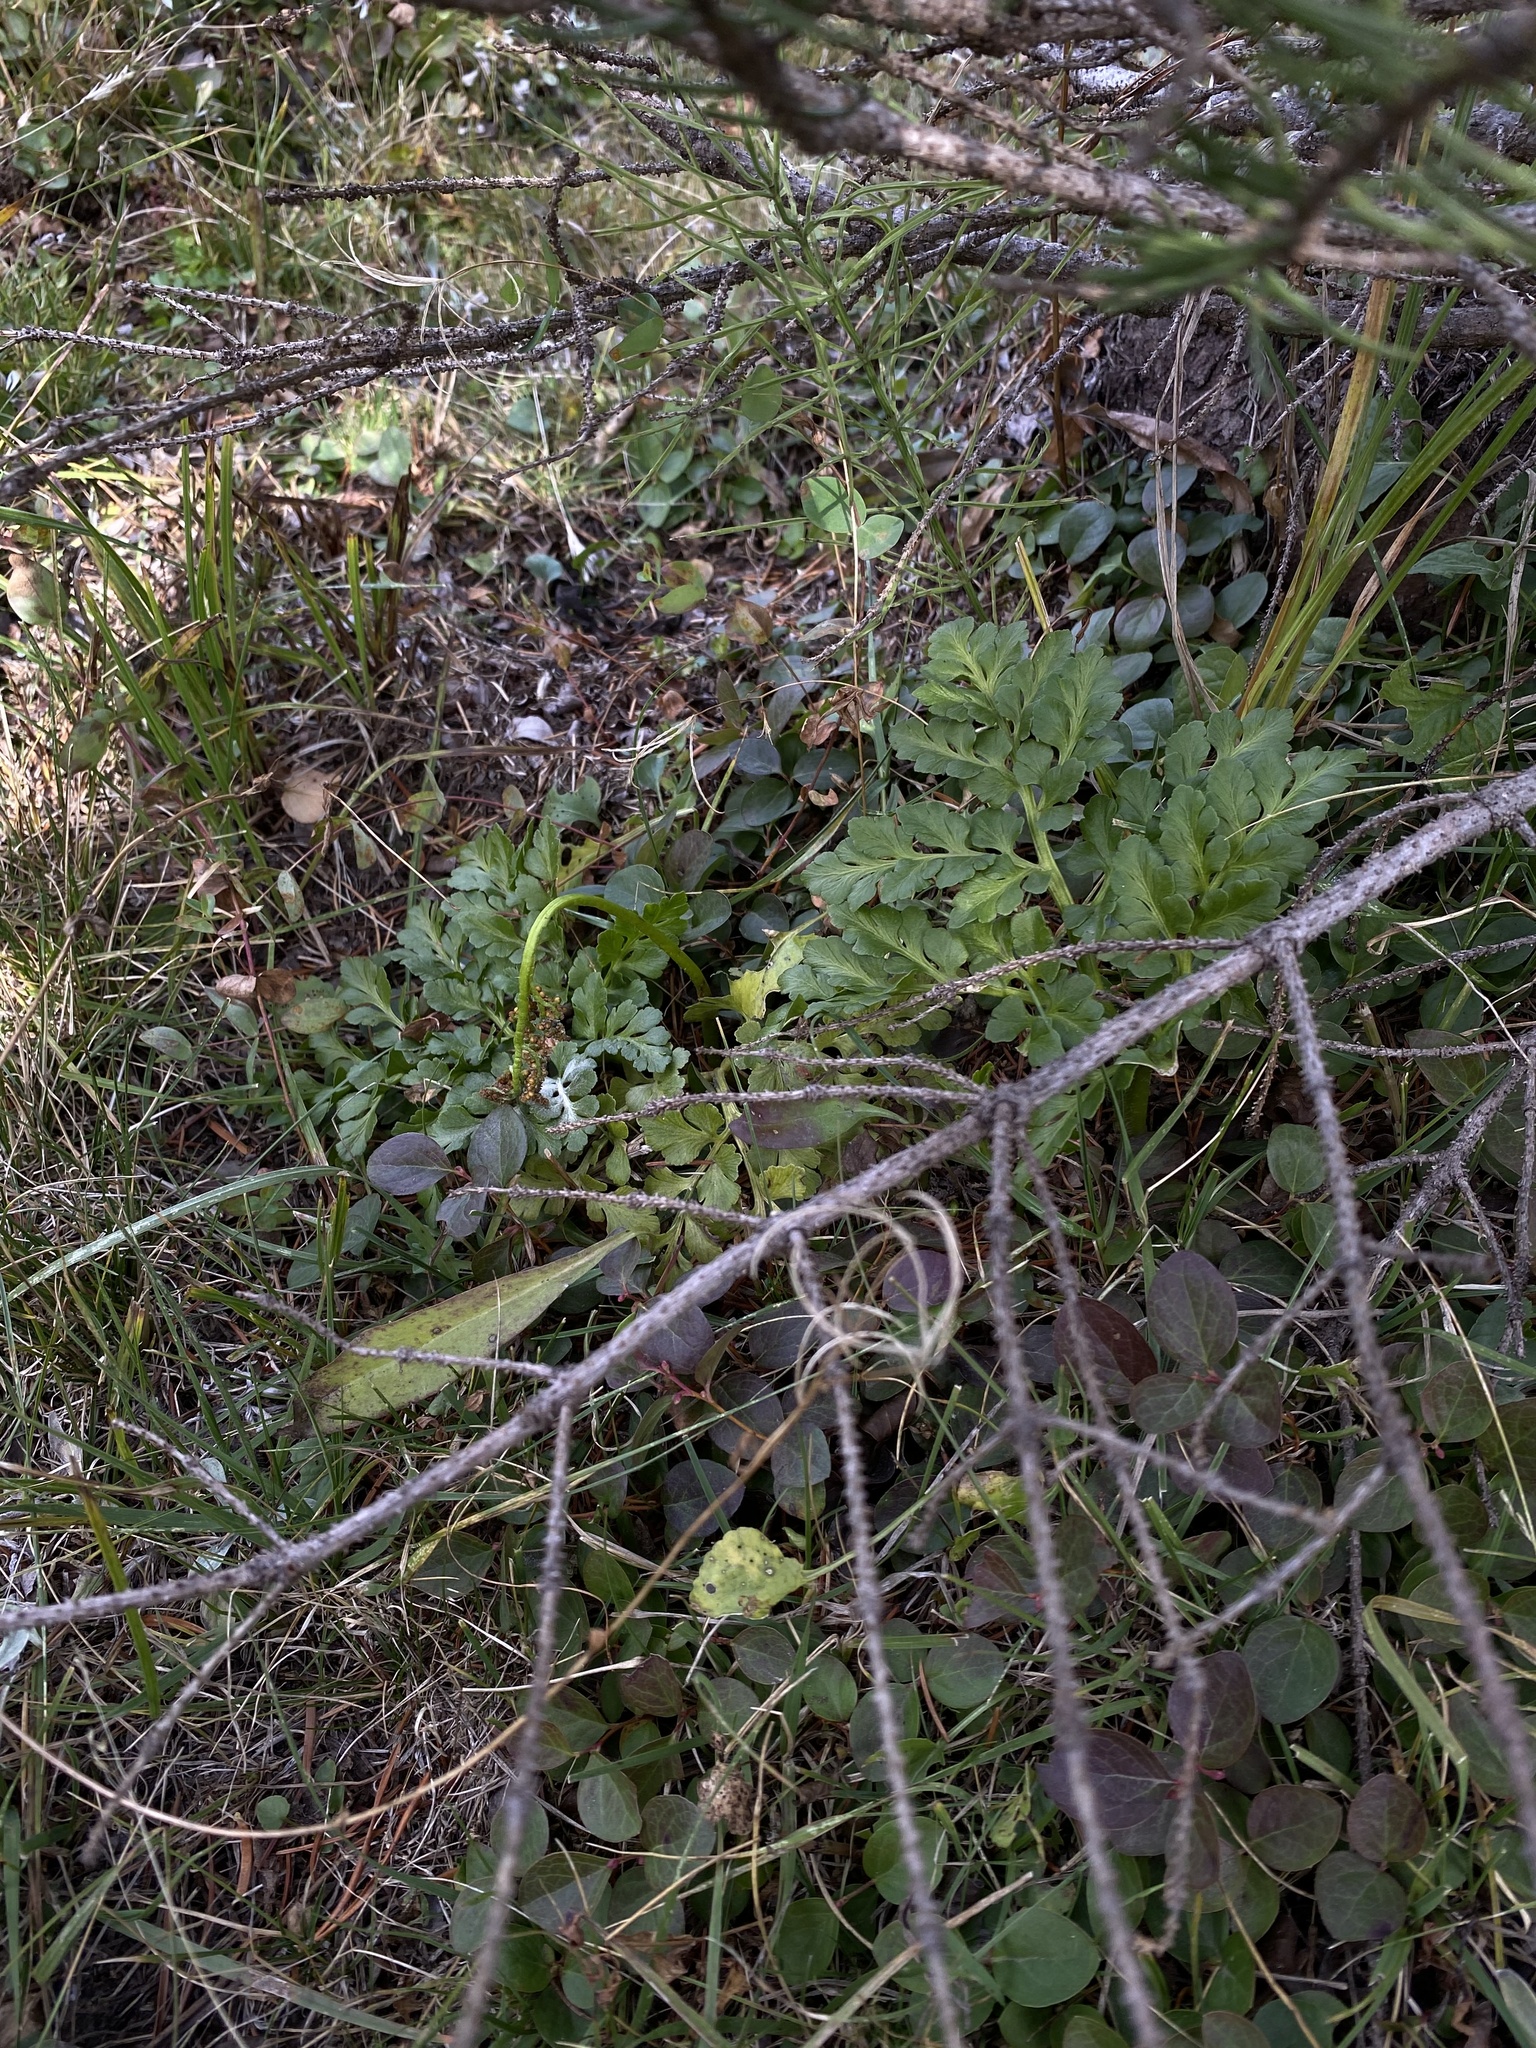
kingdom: Plantae
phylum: Tracheophyta
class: Polypodiopsida
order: Ophioglossales
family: Ophioglossaceae
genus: Sceptridium
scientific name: Sceptridium multifidum
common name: Leathery grape fern
